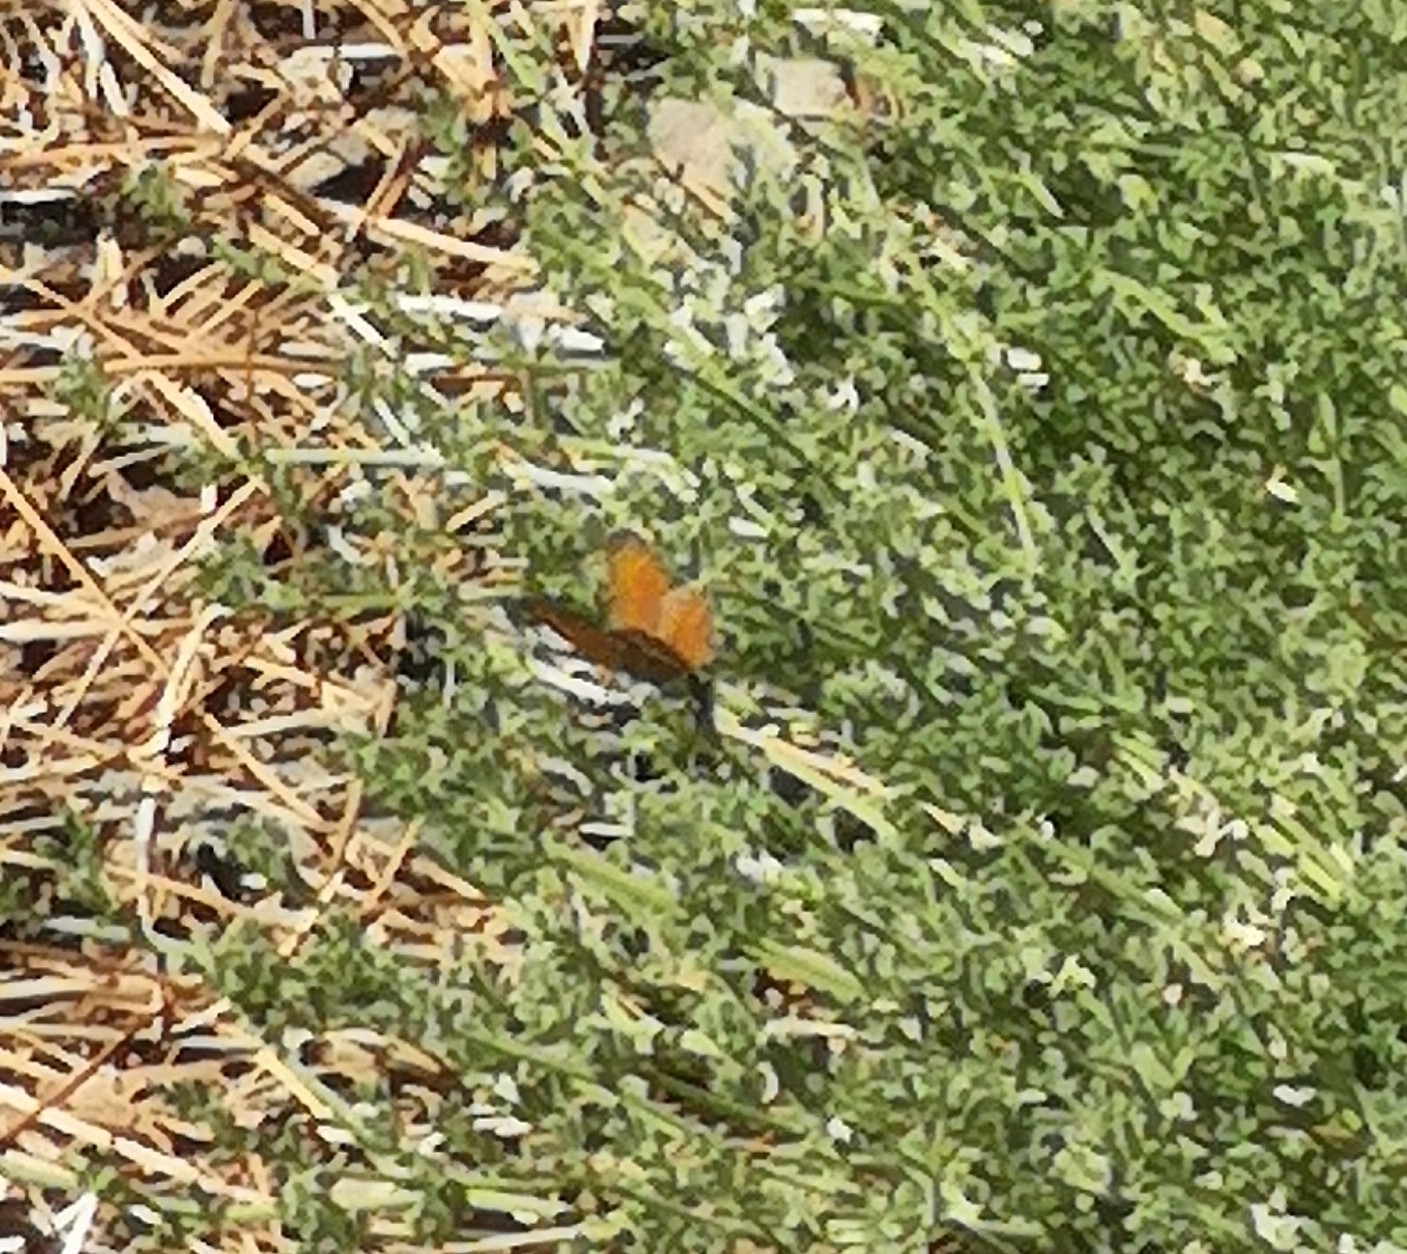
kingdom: Animalia
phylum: Arthropoda
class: Insecta
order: Lepidoptera
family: Lycaenidae
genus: Cyclyrius
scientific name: Cyclyrius webbianus
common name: Canary blue
